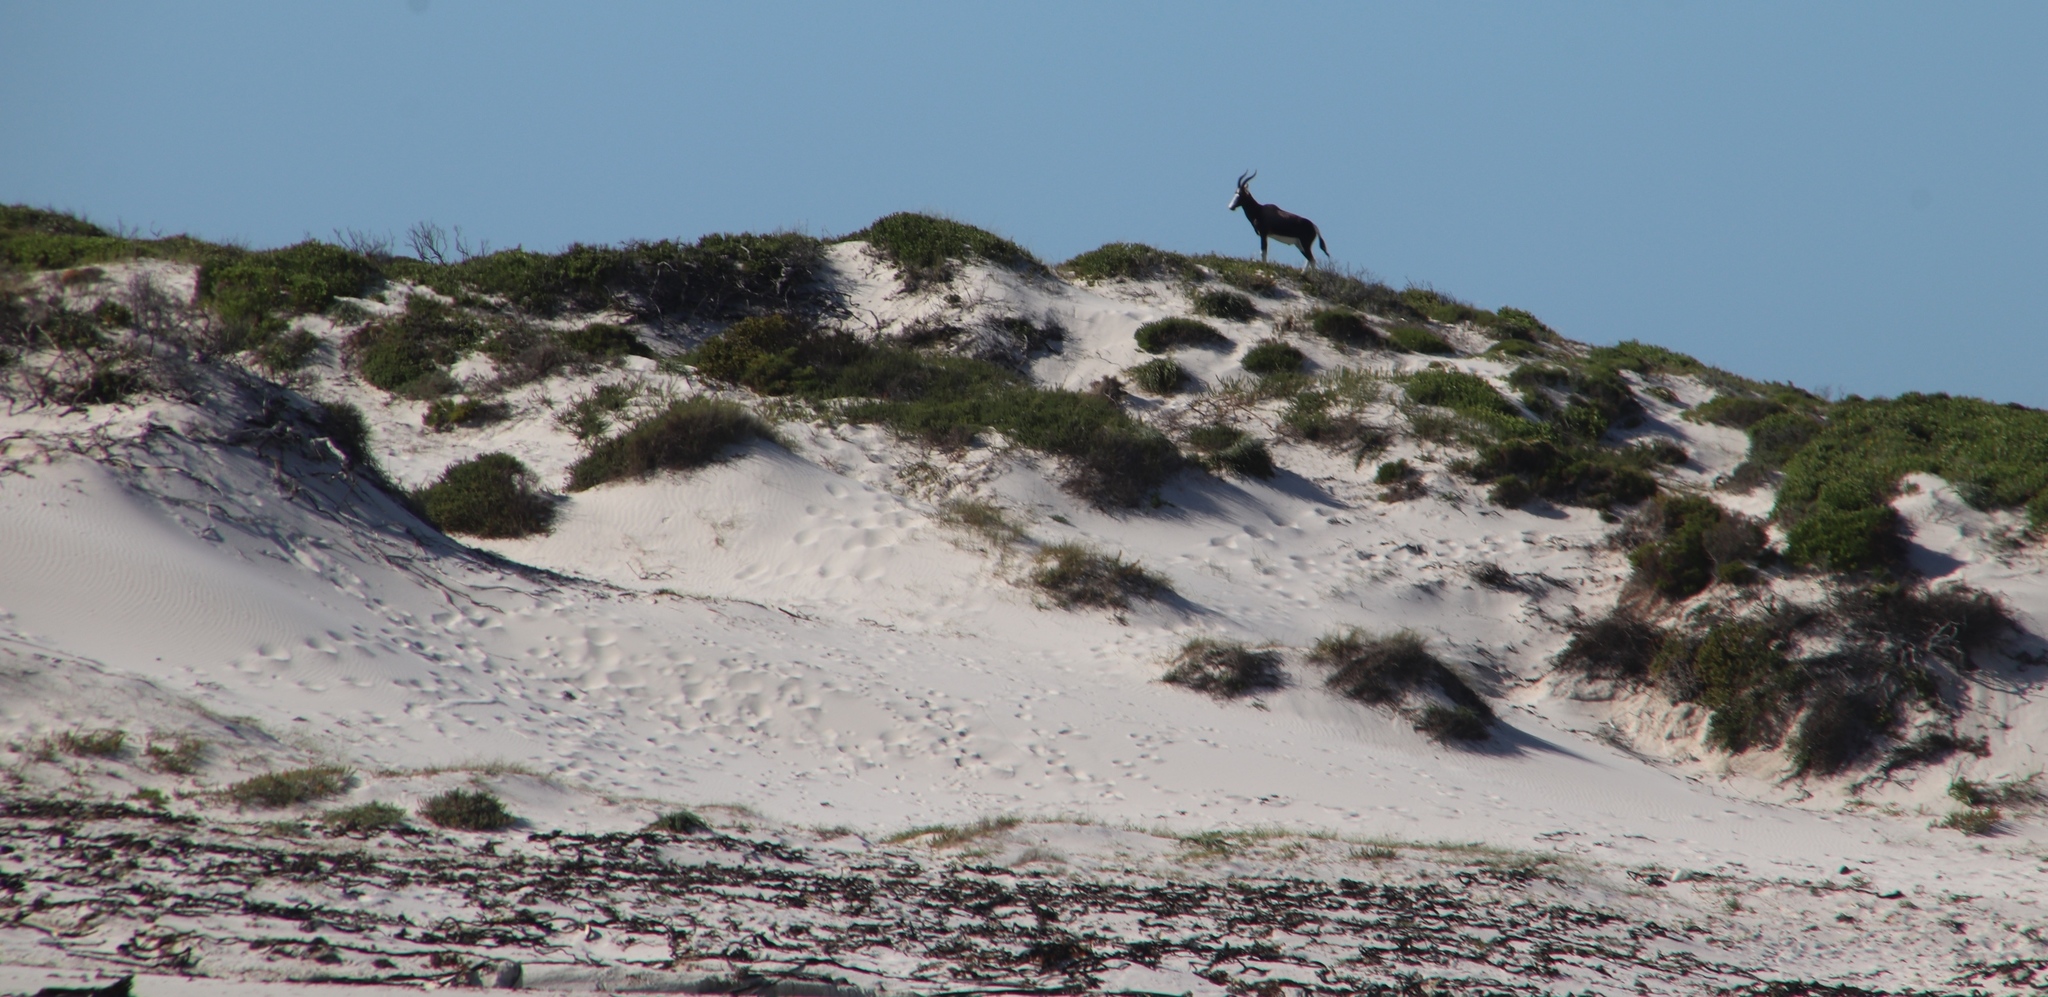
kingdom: Animalia
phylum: Chordata
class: Mammalia
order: Artiodactyla
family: Bovidae
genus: Damaliscus
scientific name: Damaliscus pygargus
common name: Bontebok
